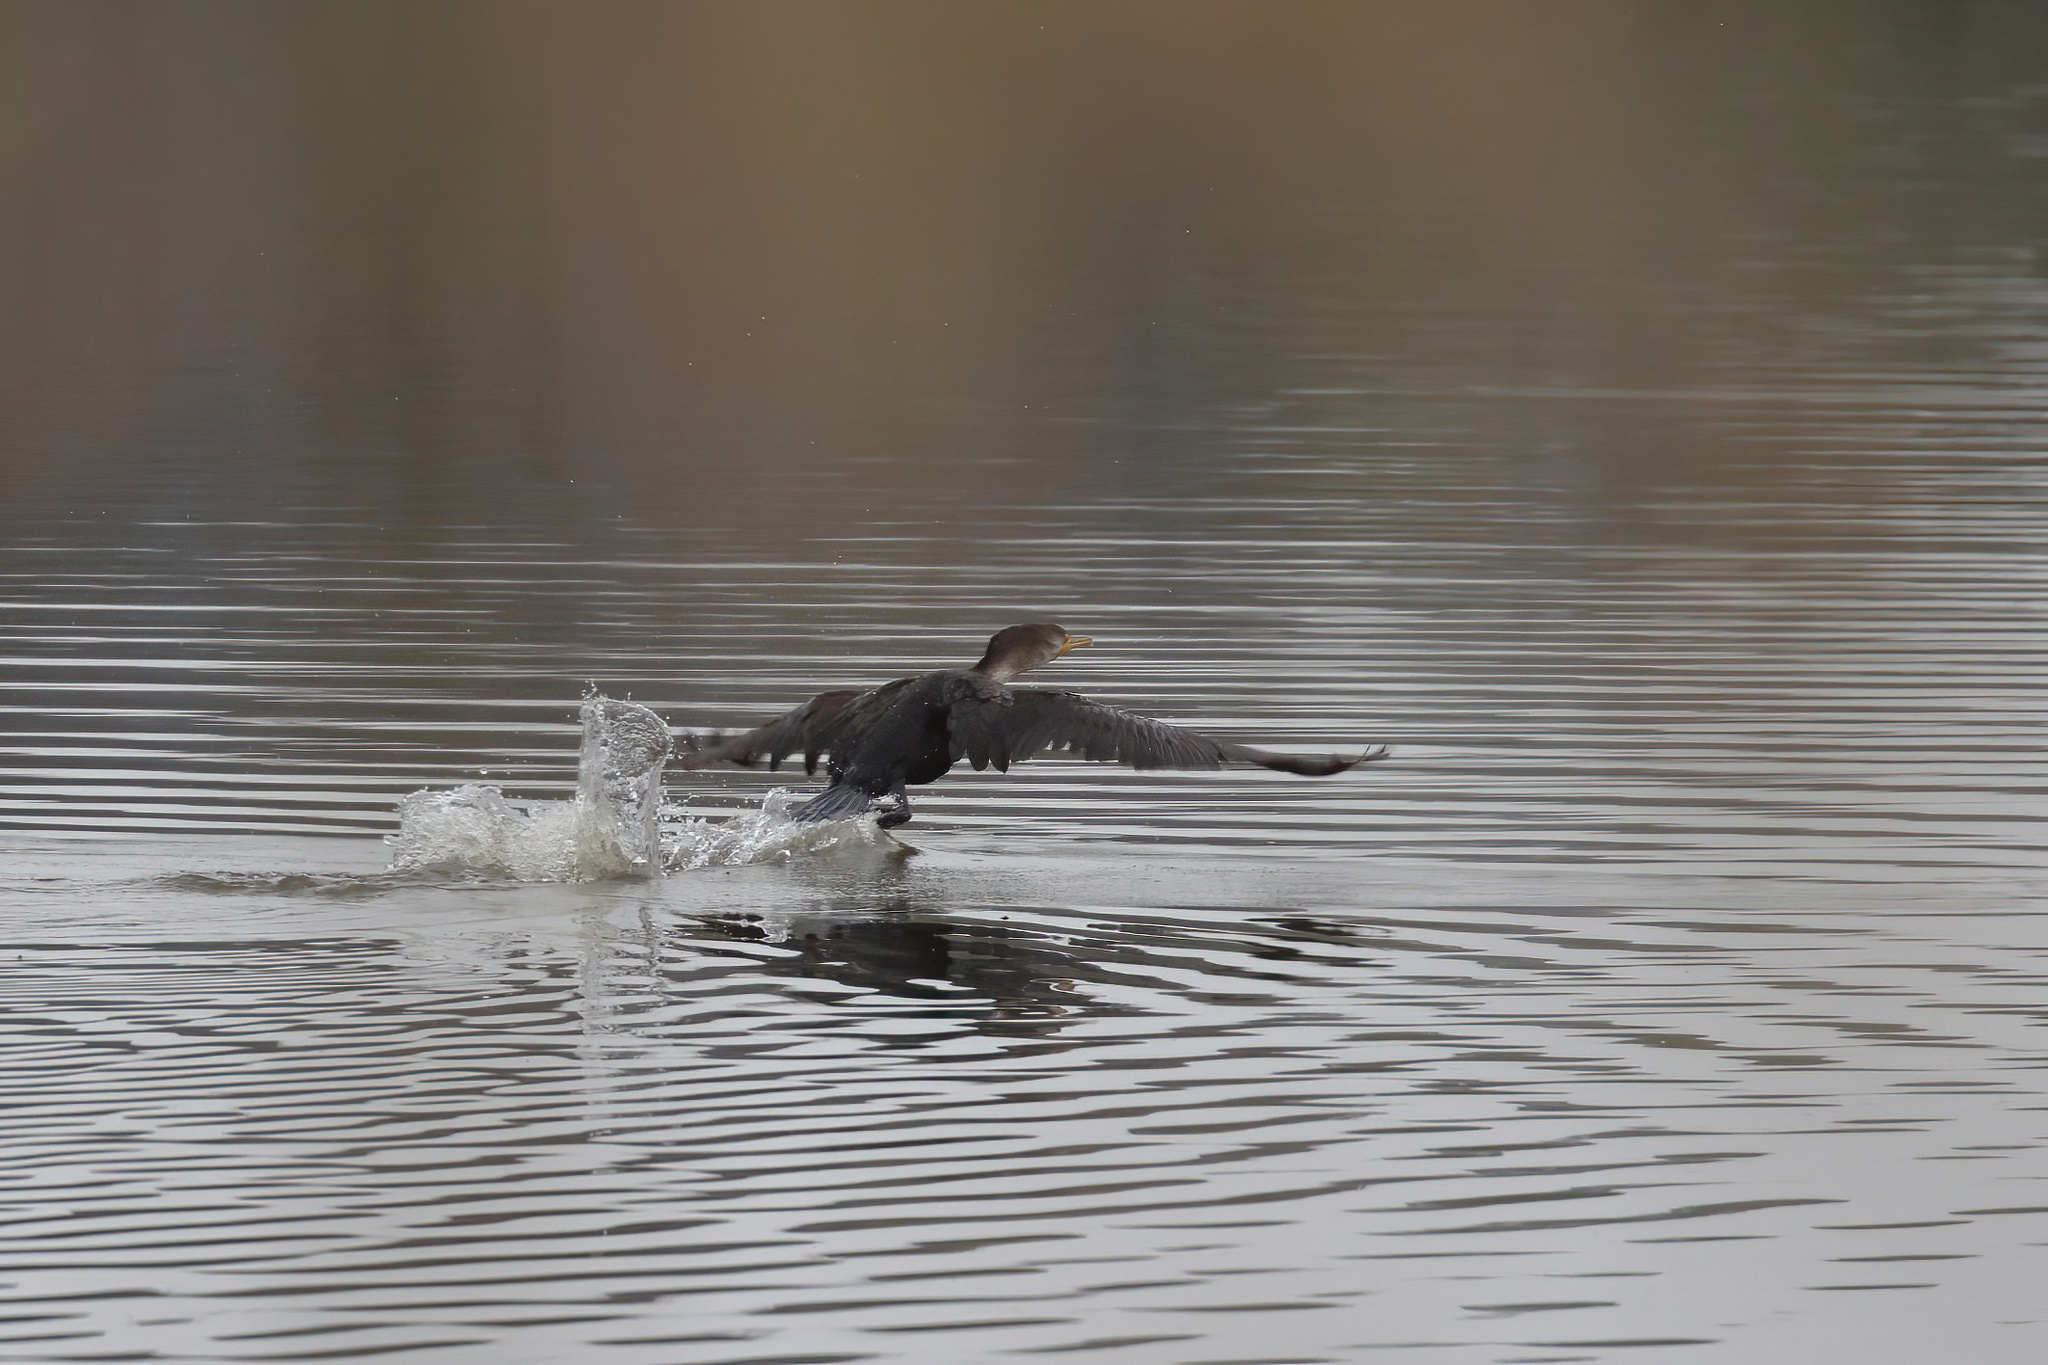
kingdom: Animalia
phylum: Chordata
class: Aves
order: Suliformes
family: Phalacrocoracidae
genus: Phalacrocorax
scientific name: Phalacrocorax auritus
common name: Double-crested cormorant
